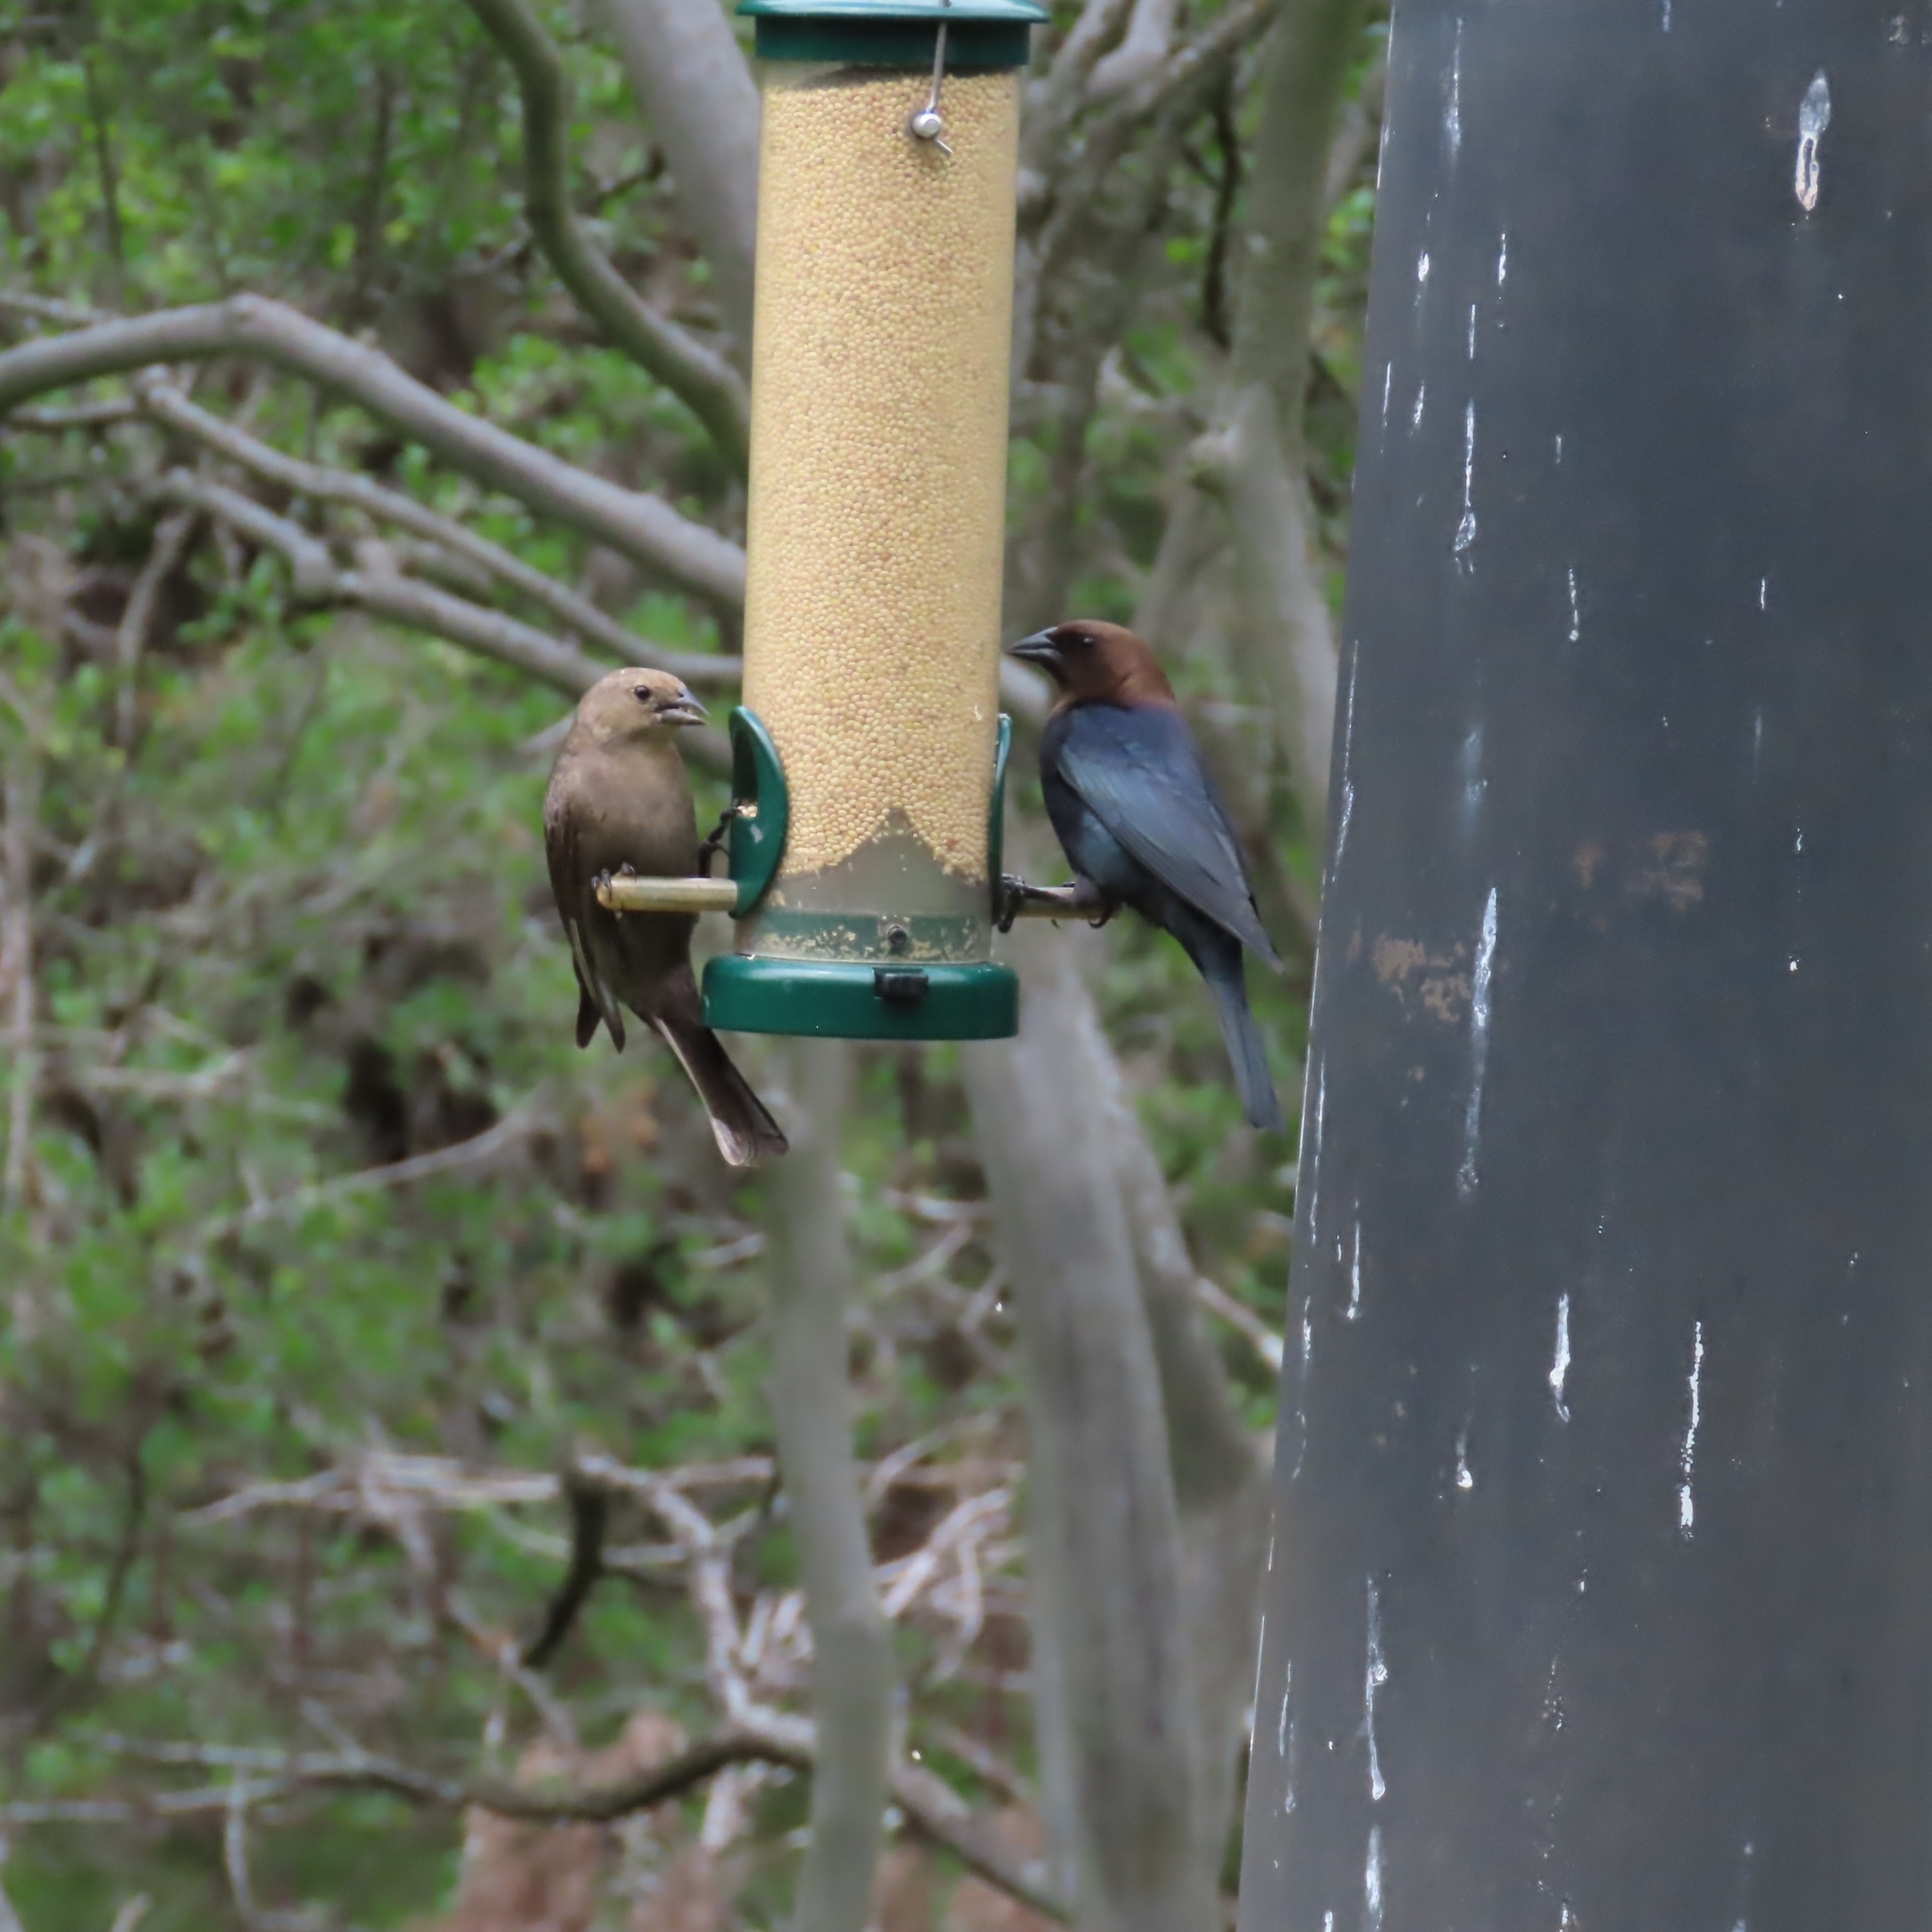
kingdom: Animalia
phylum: Chordata
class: Aves
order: Passeriformes
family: Icteridae
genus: Molothrus
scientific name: Molothrus ater
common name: Brown-headed cowbird
